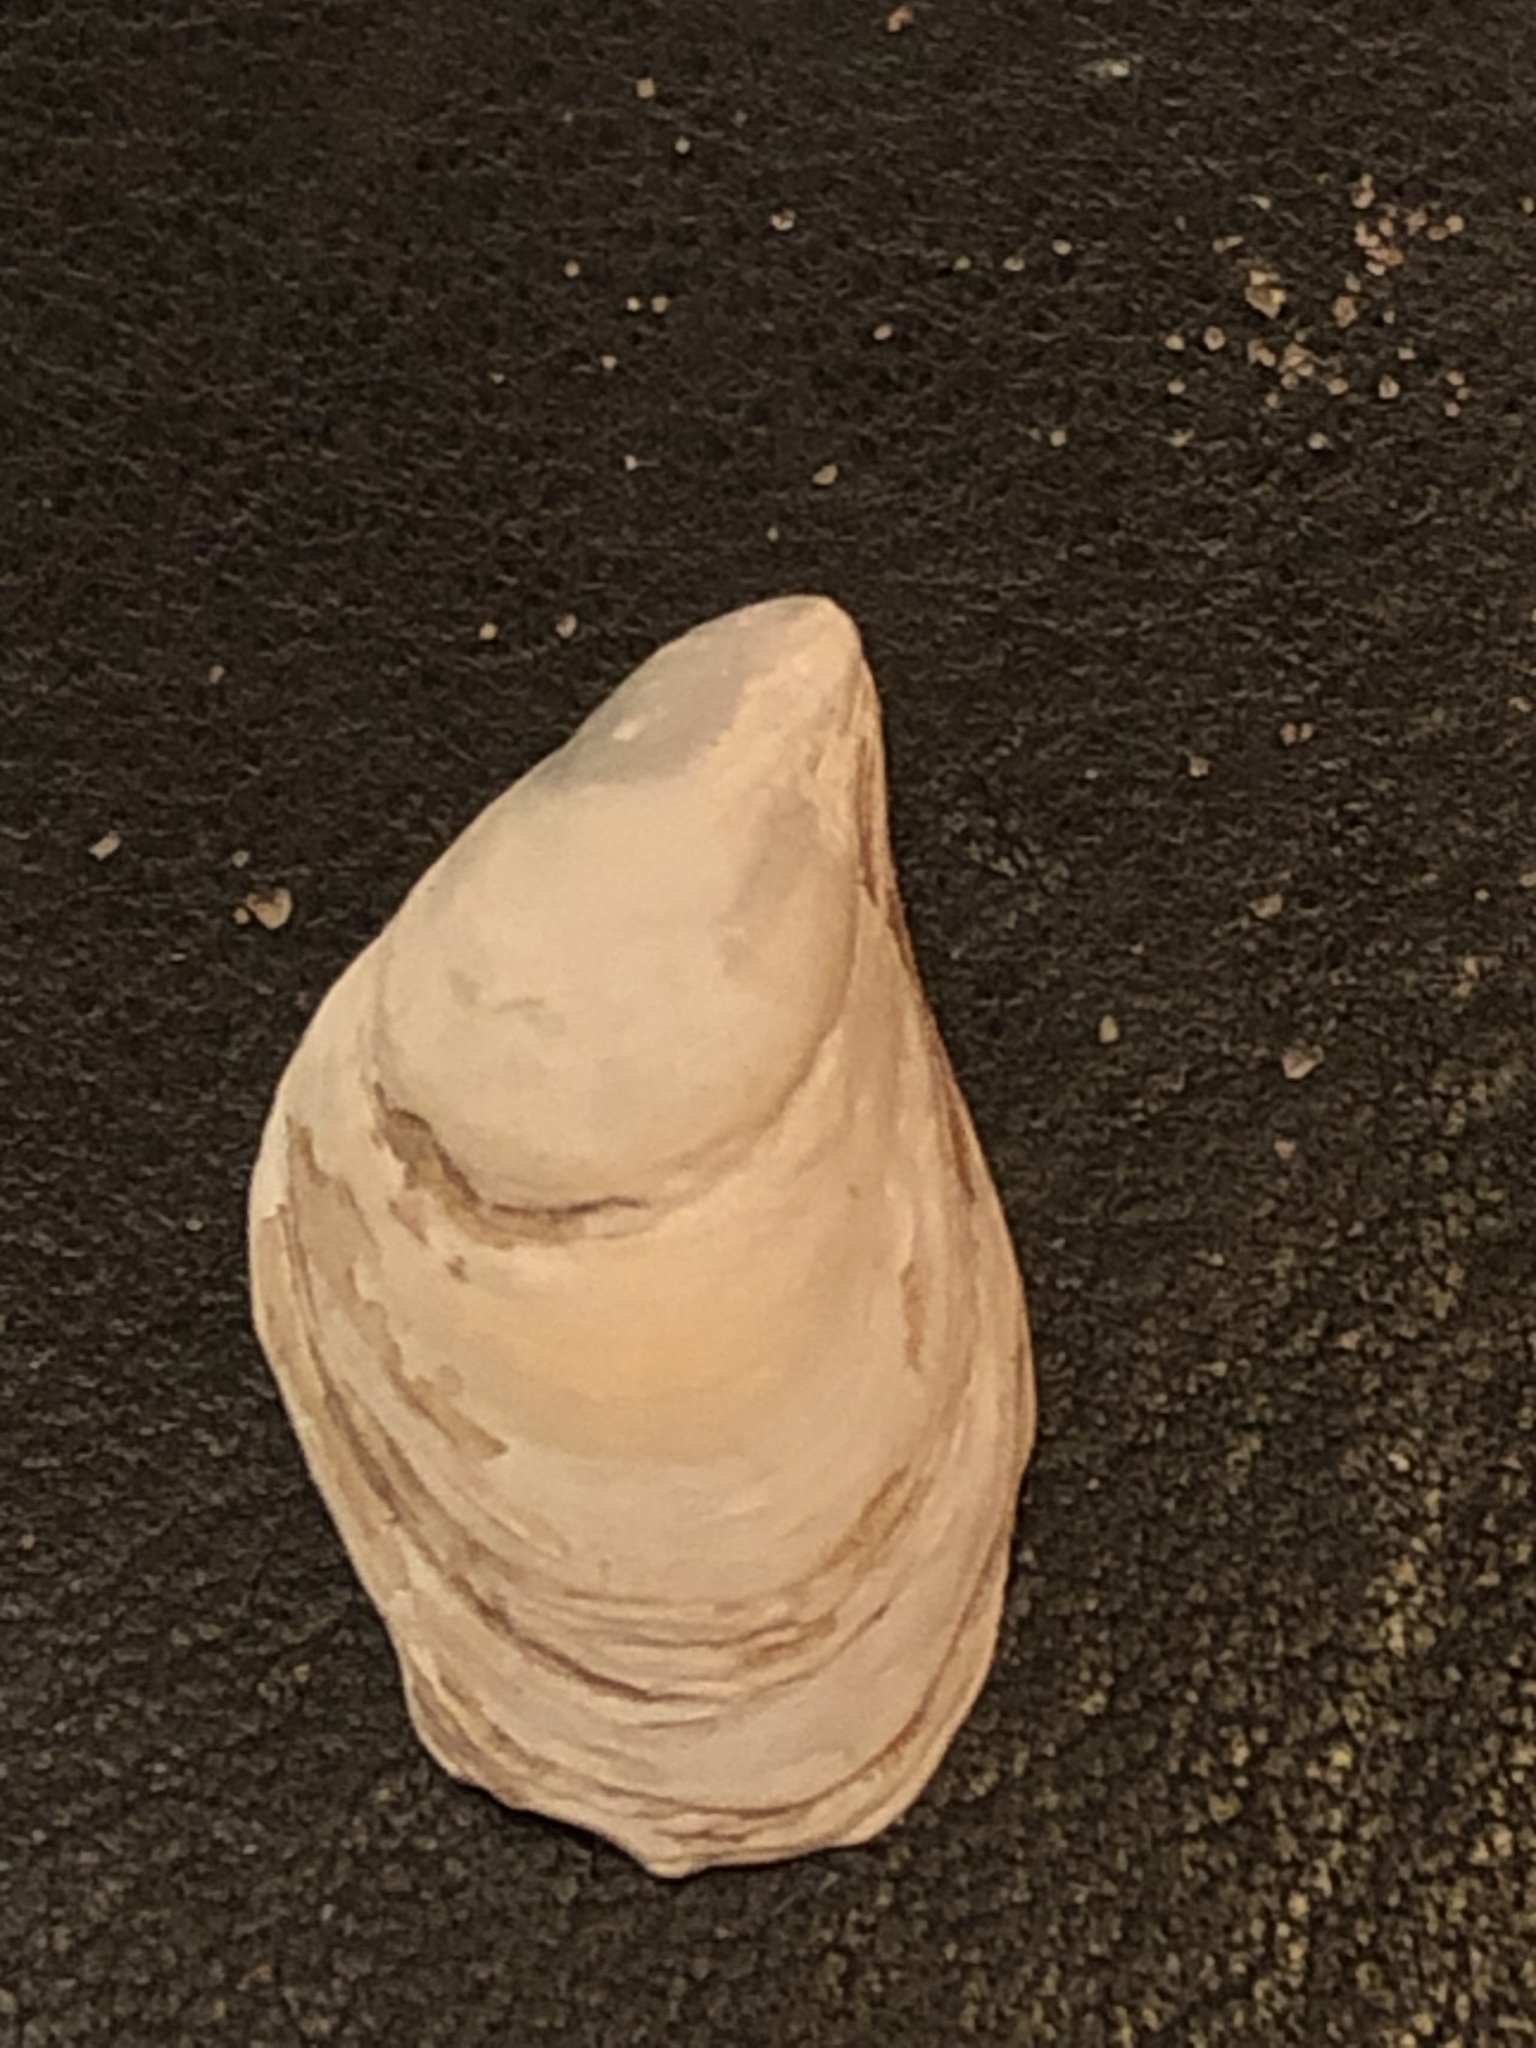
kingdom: Animalia
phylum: Mollusca
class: Bivalvia
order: Myida
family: Dreissenidae
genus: Dreissena
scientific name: Dreissena bugensis
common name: Quagga mussel
